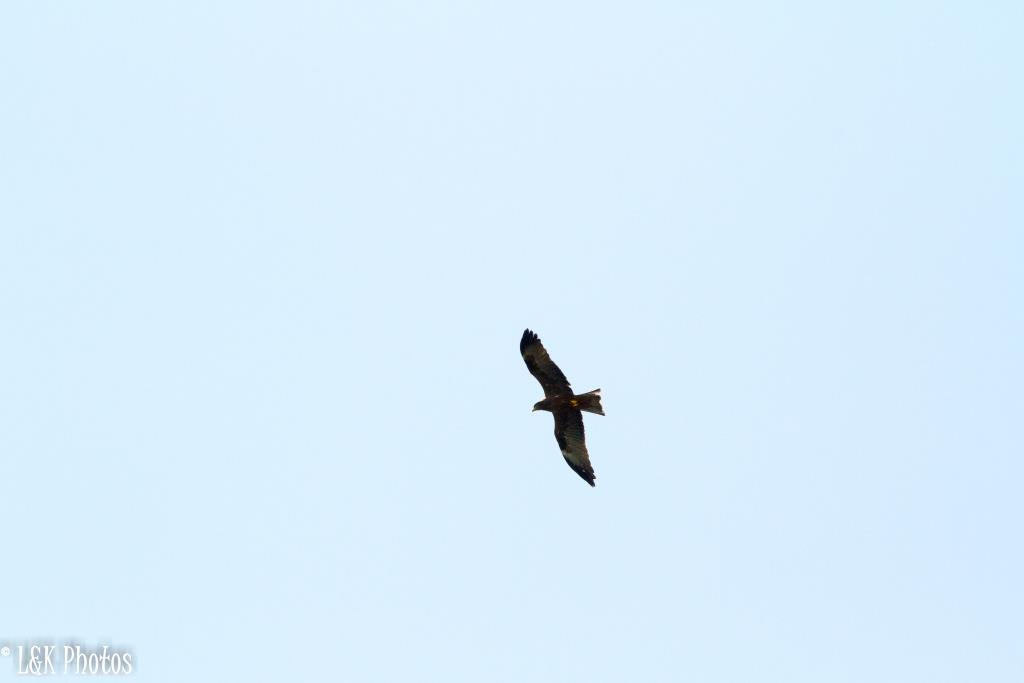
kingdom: Animalia
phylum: Chordata
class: Aves
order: Accipitriformes
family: Accipitridae
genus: Milvus
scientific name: Milvus migrans
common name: Black kite
